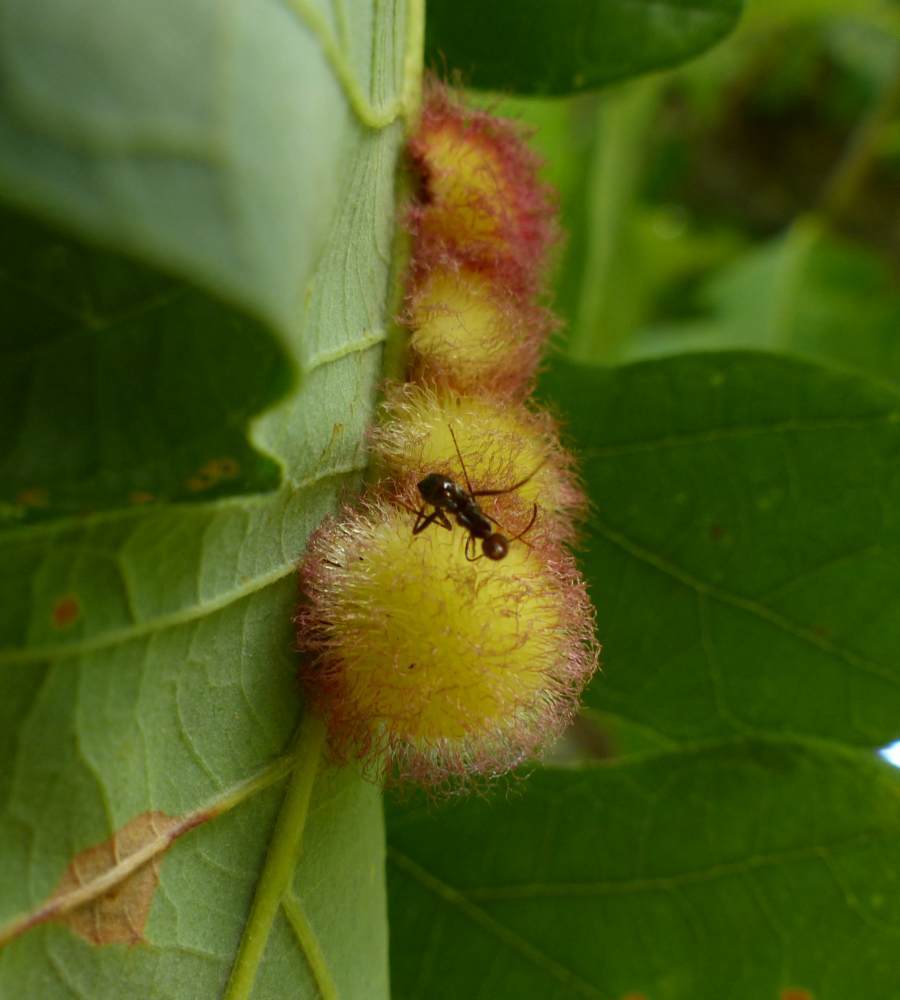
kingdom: Animalia
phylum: Arthropoda
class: Insecta
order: Hymenoptera
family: Cynipidae
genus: Acraspis
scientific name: Acraspis villosa
